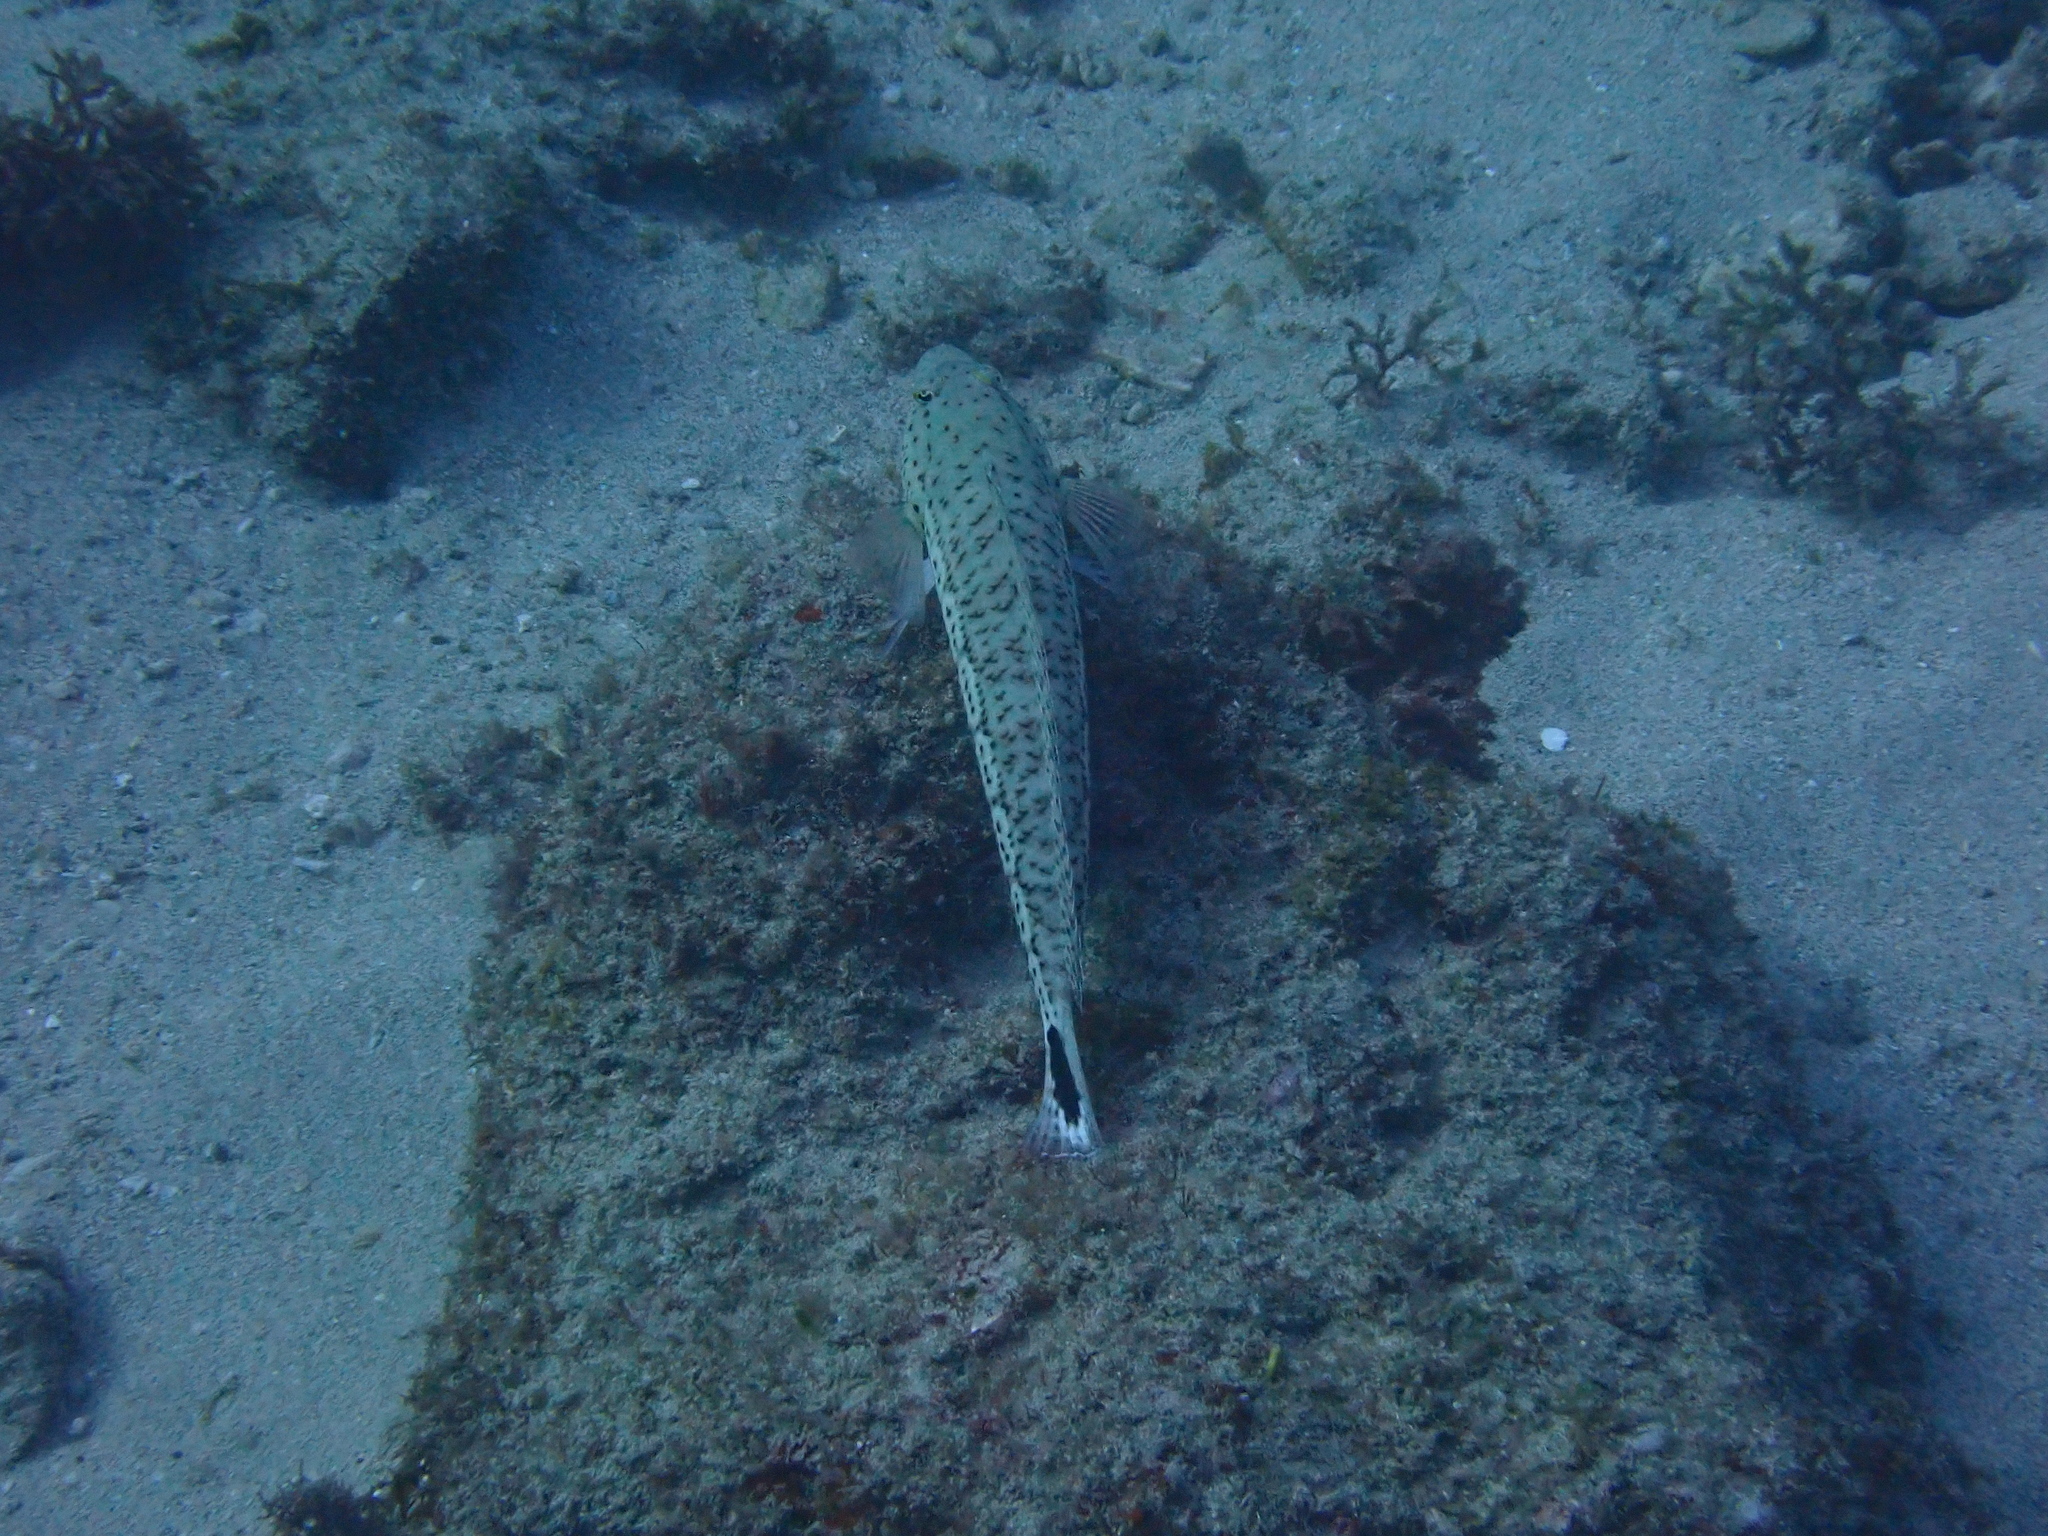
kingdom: Animalia
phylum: Chordata
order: Perciformes
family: Pinguipedidae
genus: Parapercis
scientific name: Parapercis pacifica
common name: Speckled sandperch
